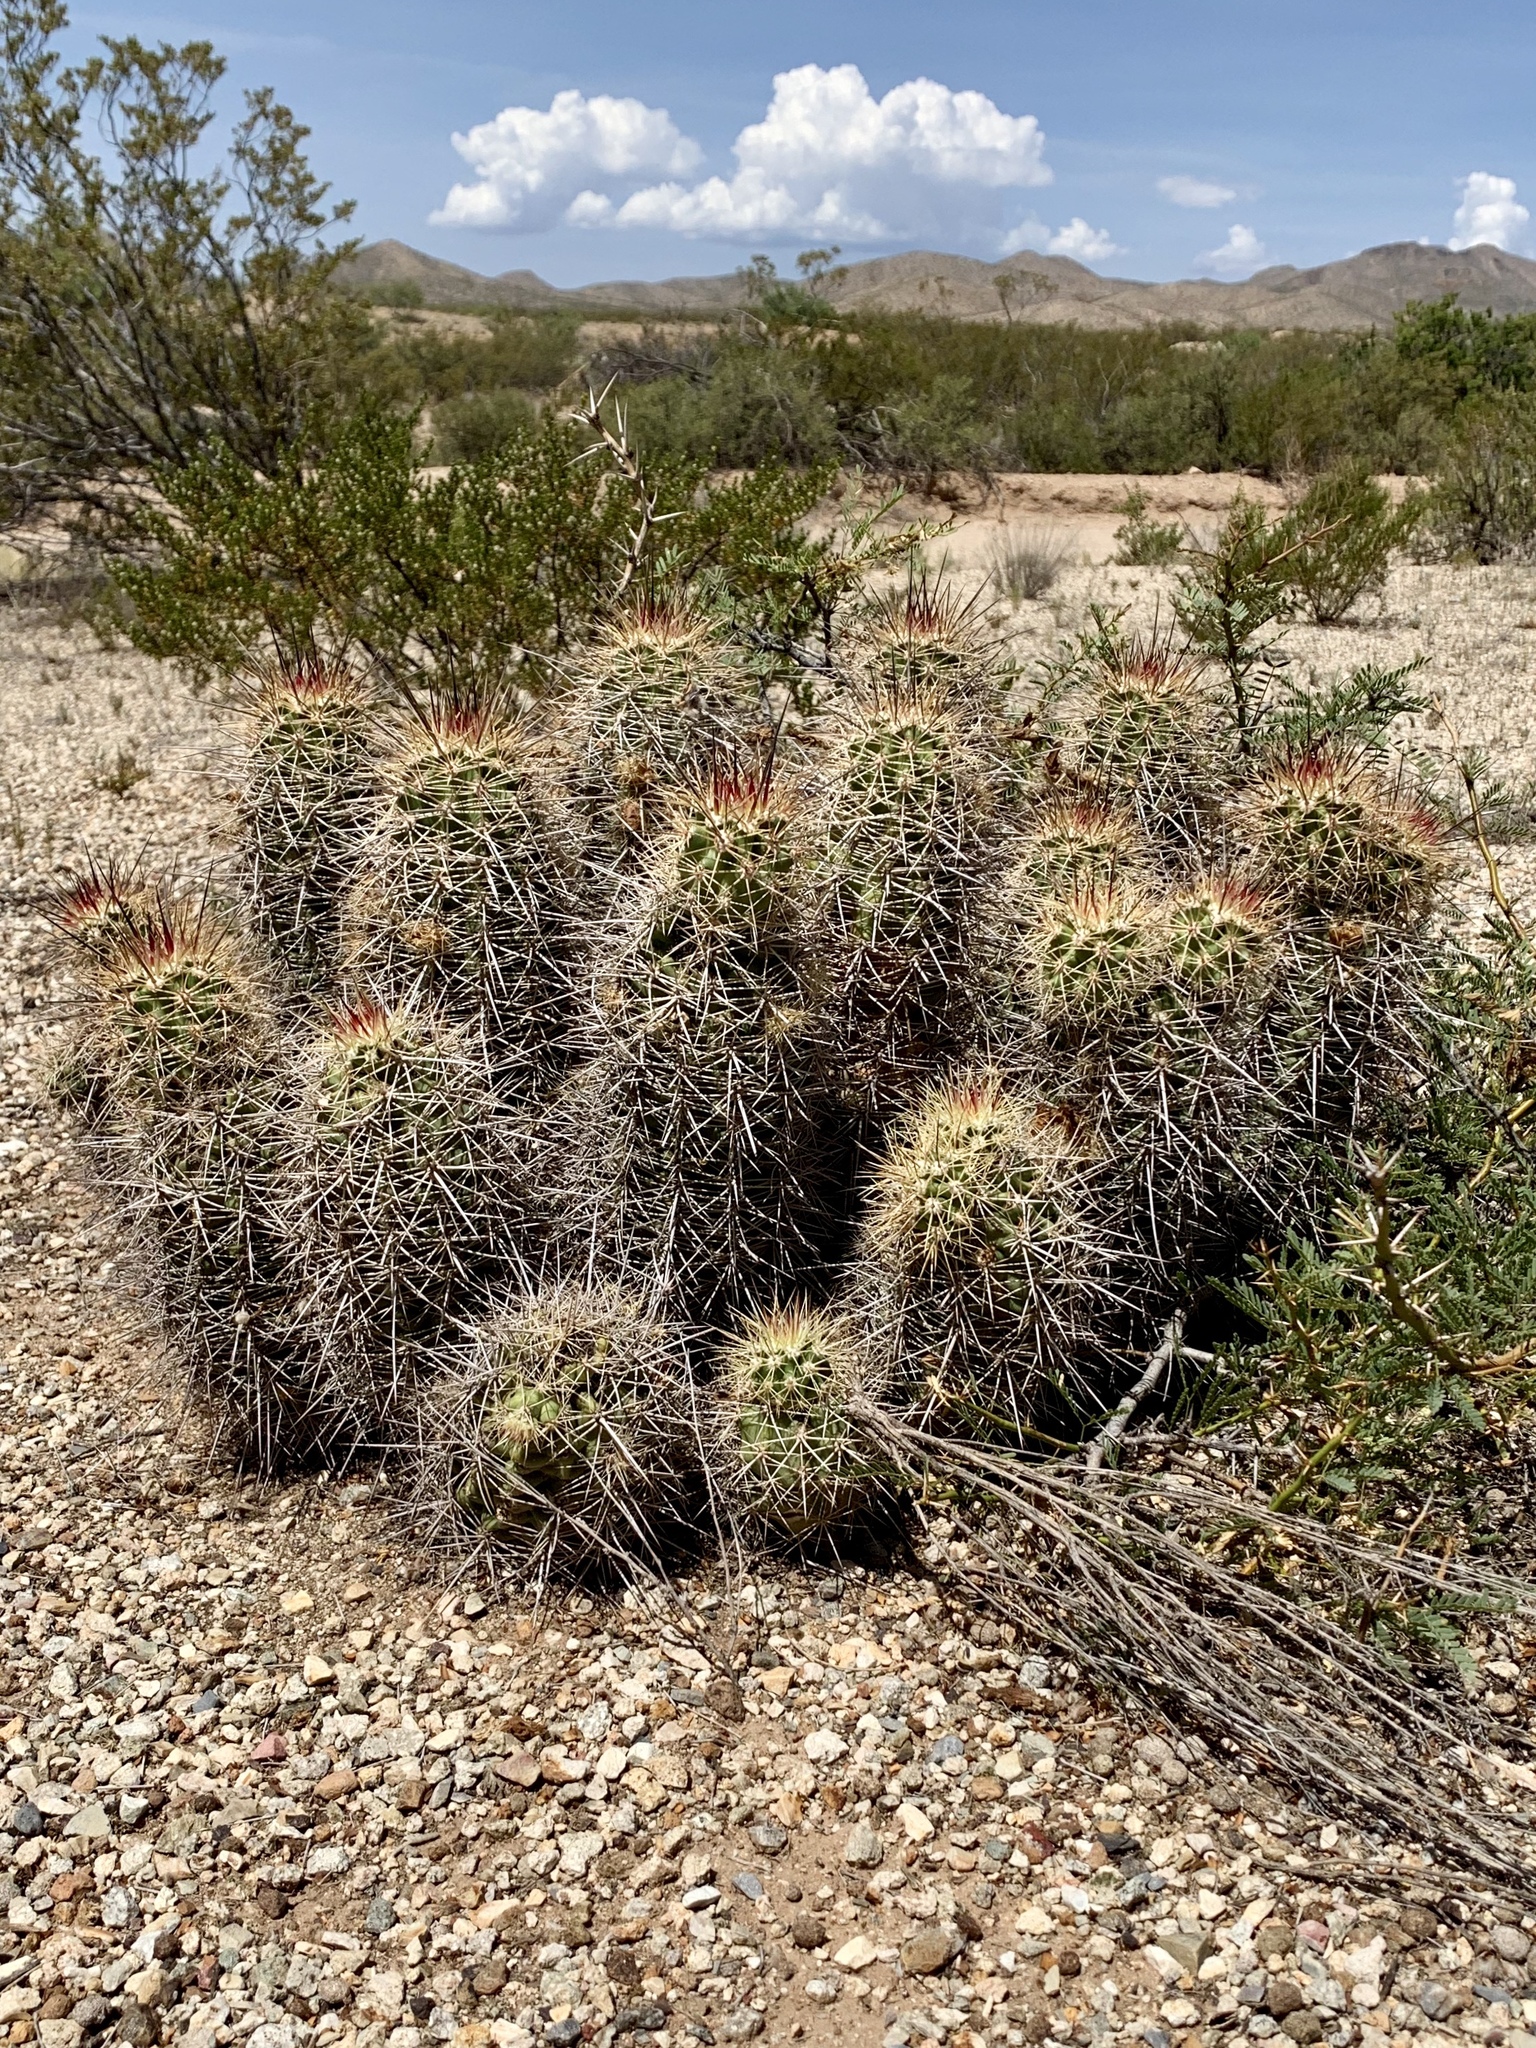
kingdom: Plantae
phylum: Tracheophyta
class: Magnoliopsida
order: Caryophyllales
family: Cactaceae
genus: Echinocereus
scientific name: Echinocereus coccineus
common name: Scarlet hedgehog cactus
